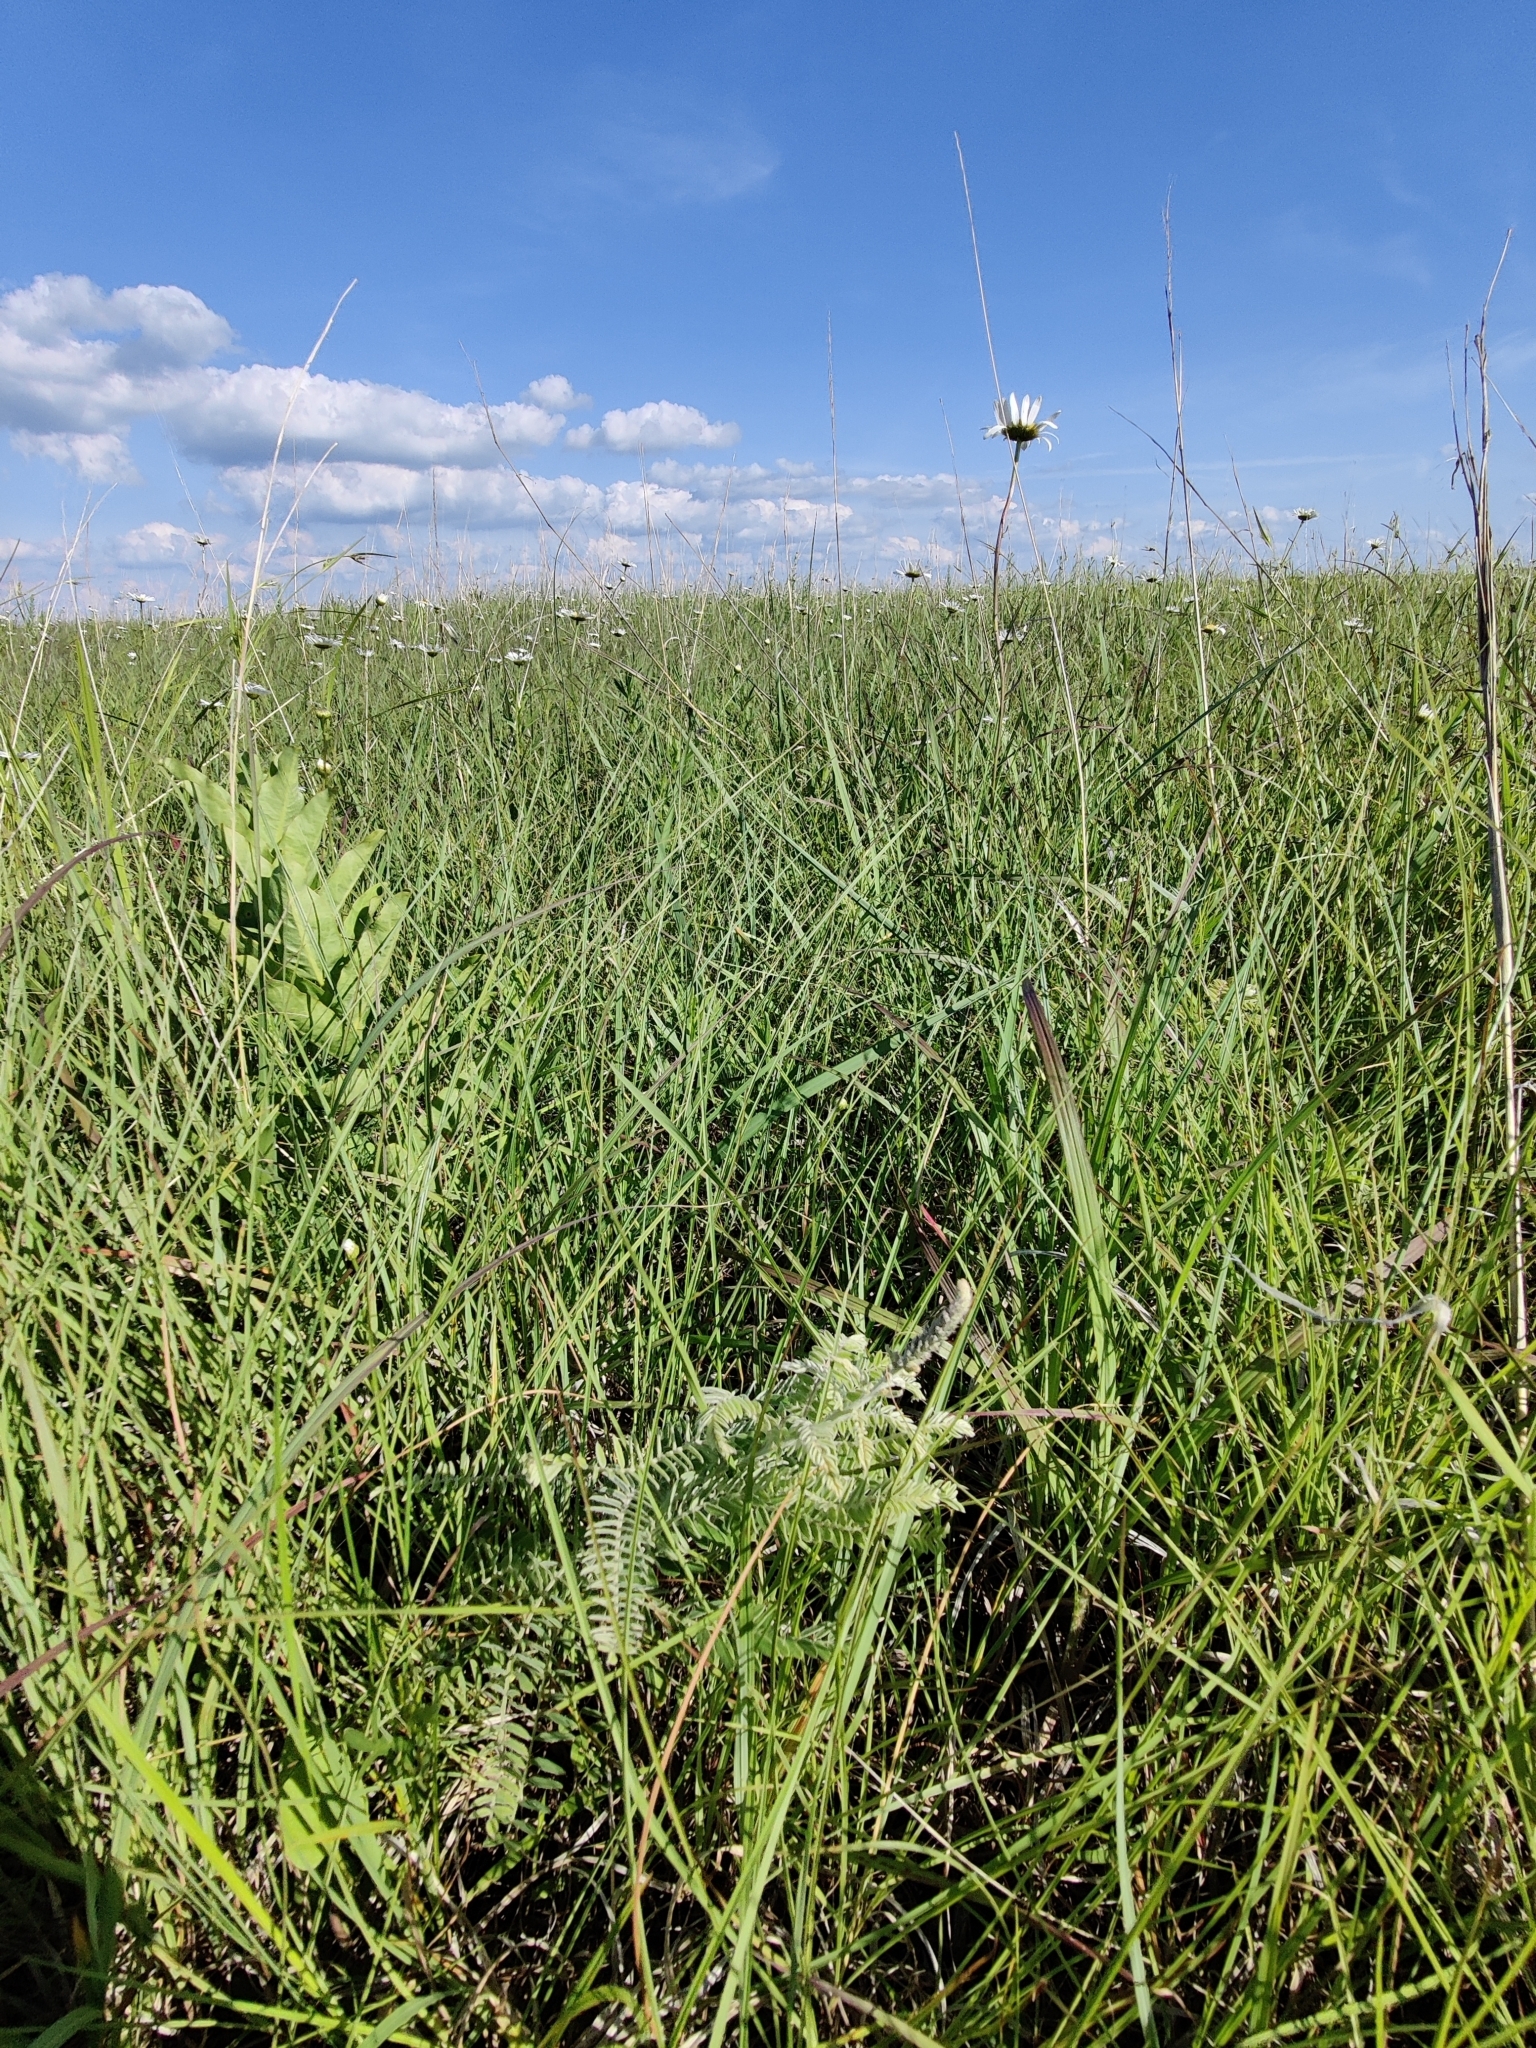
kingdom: Plantae
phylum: Tracheophyta
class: Magnoliopsida
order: Fabales
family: Fabaceae
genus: Amorpha
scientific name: Amorpha canescens
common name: Leadplant
